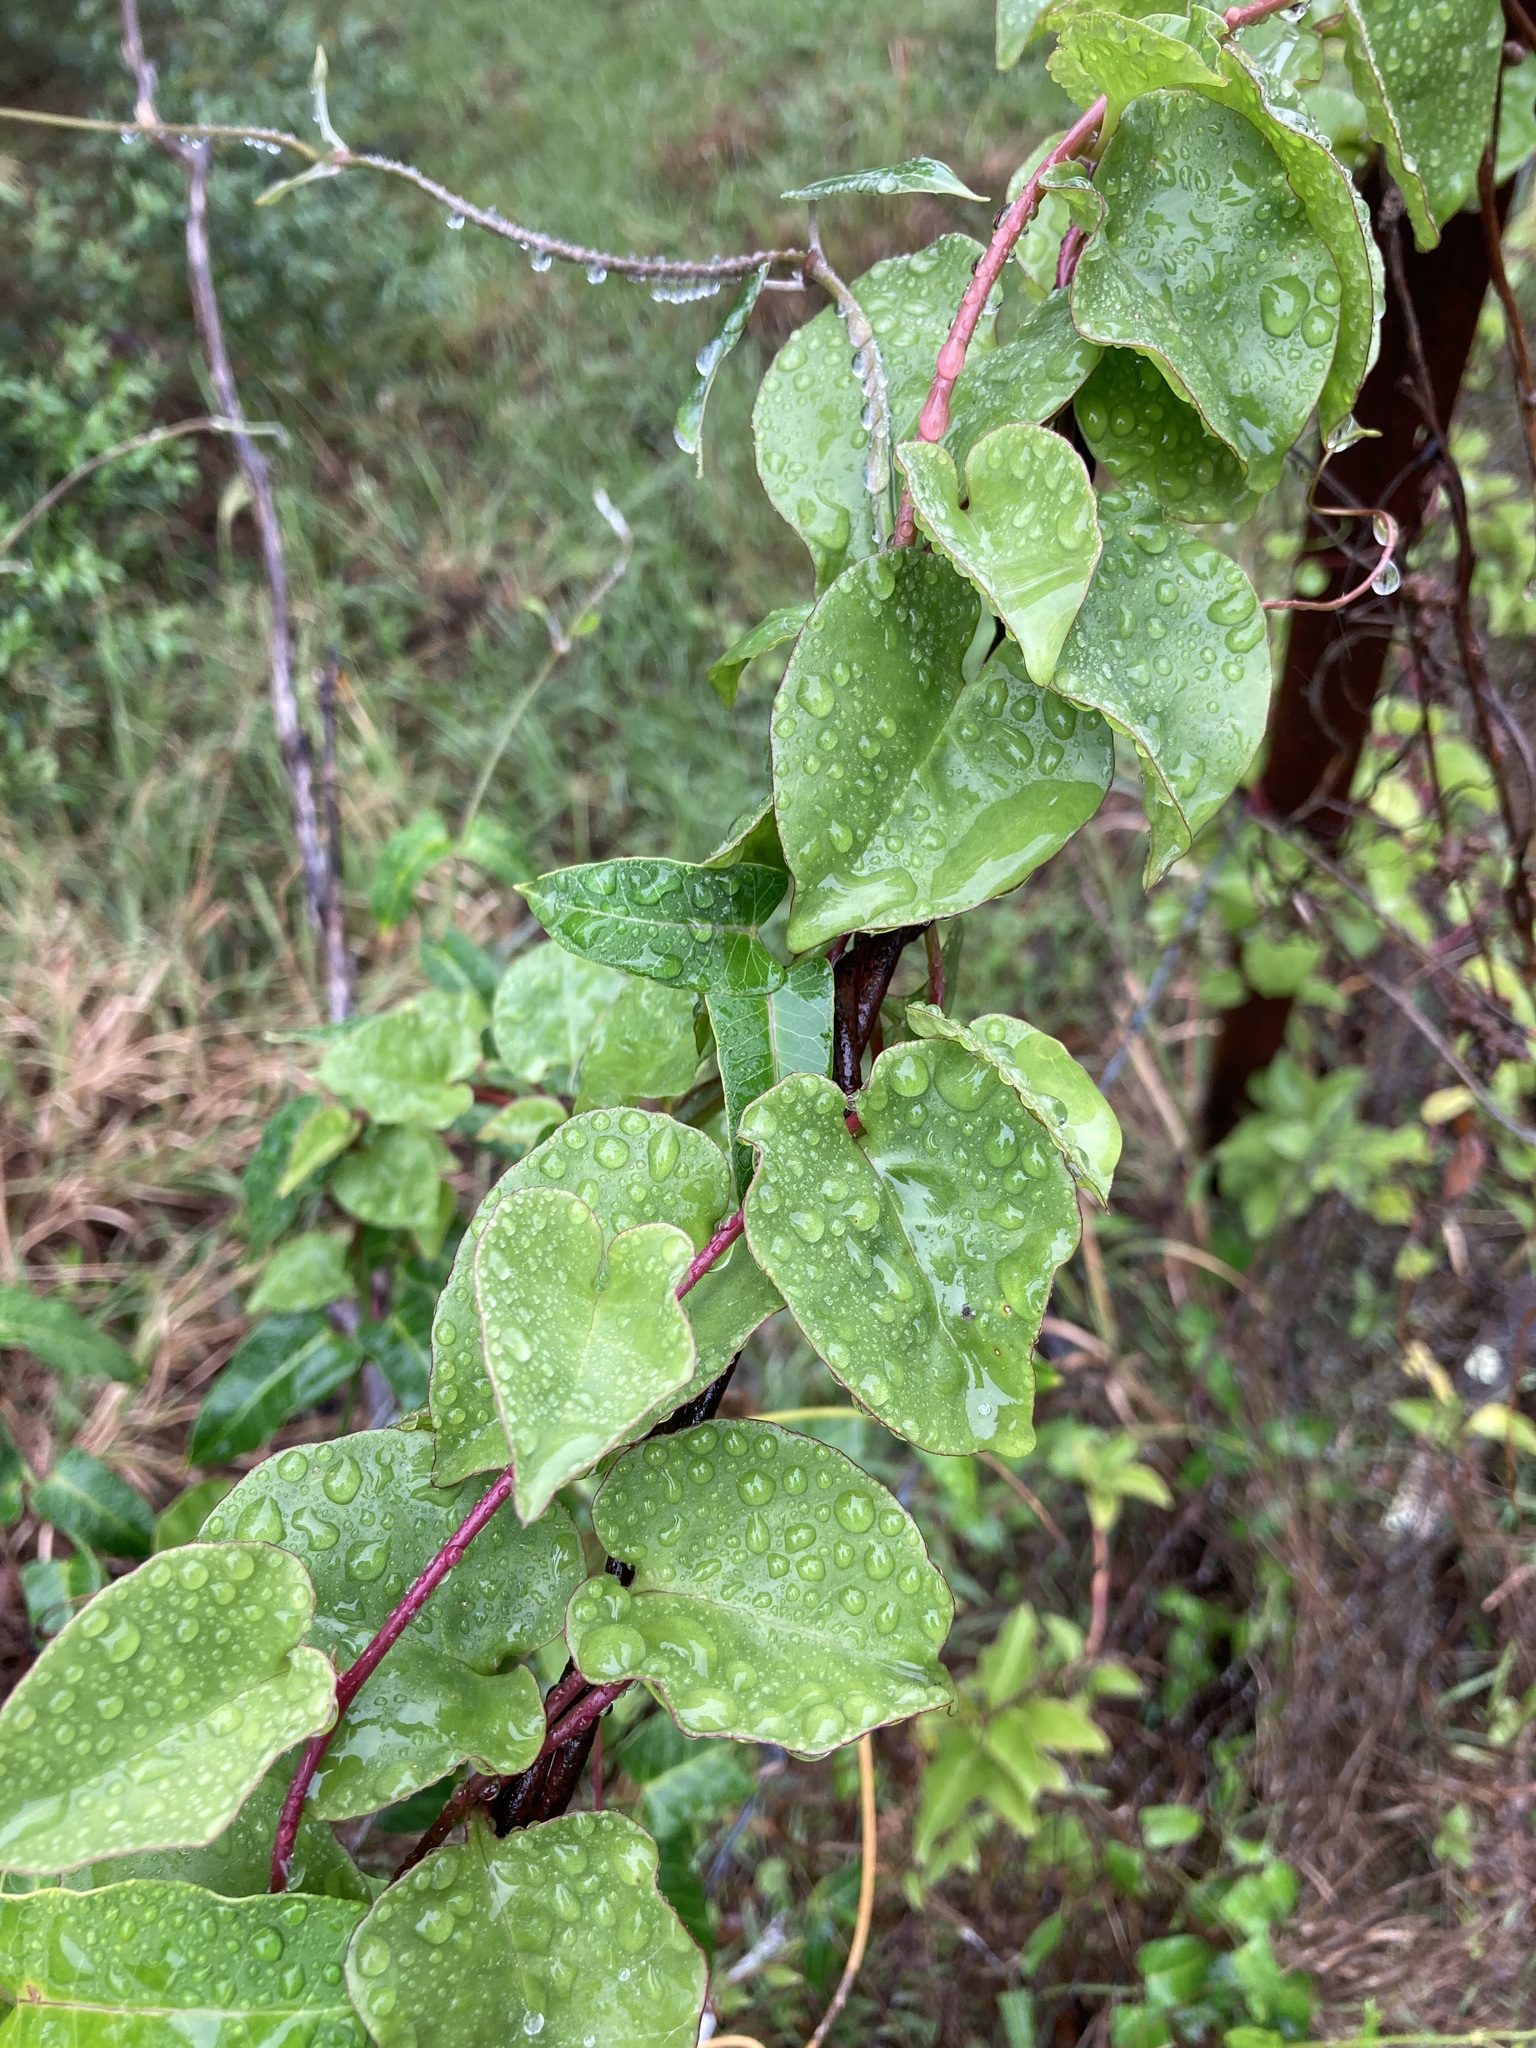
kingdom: Plantae
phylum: Tracheophyta
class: Magnoliopsida
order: Caryophyllales
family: Basellaceae
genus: Anredera
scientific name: Anredera cordifolia
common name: Heartleaf madeiravine
